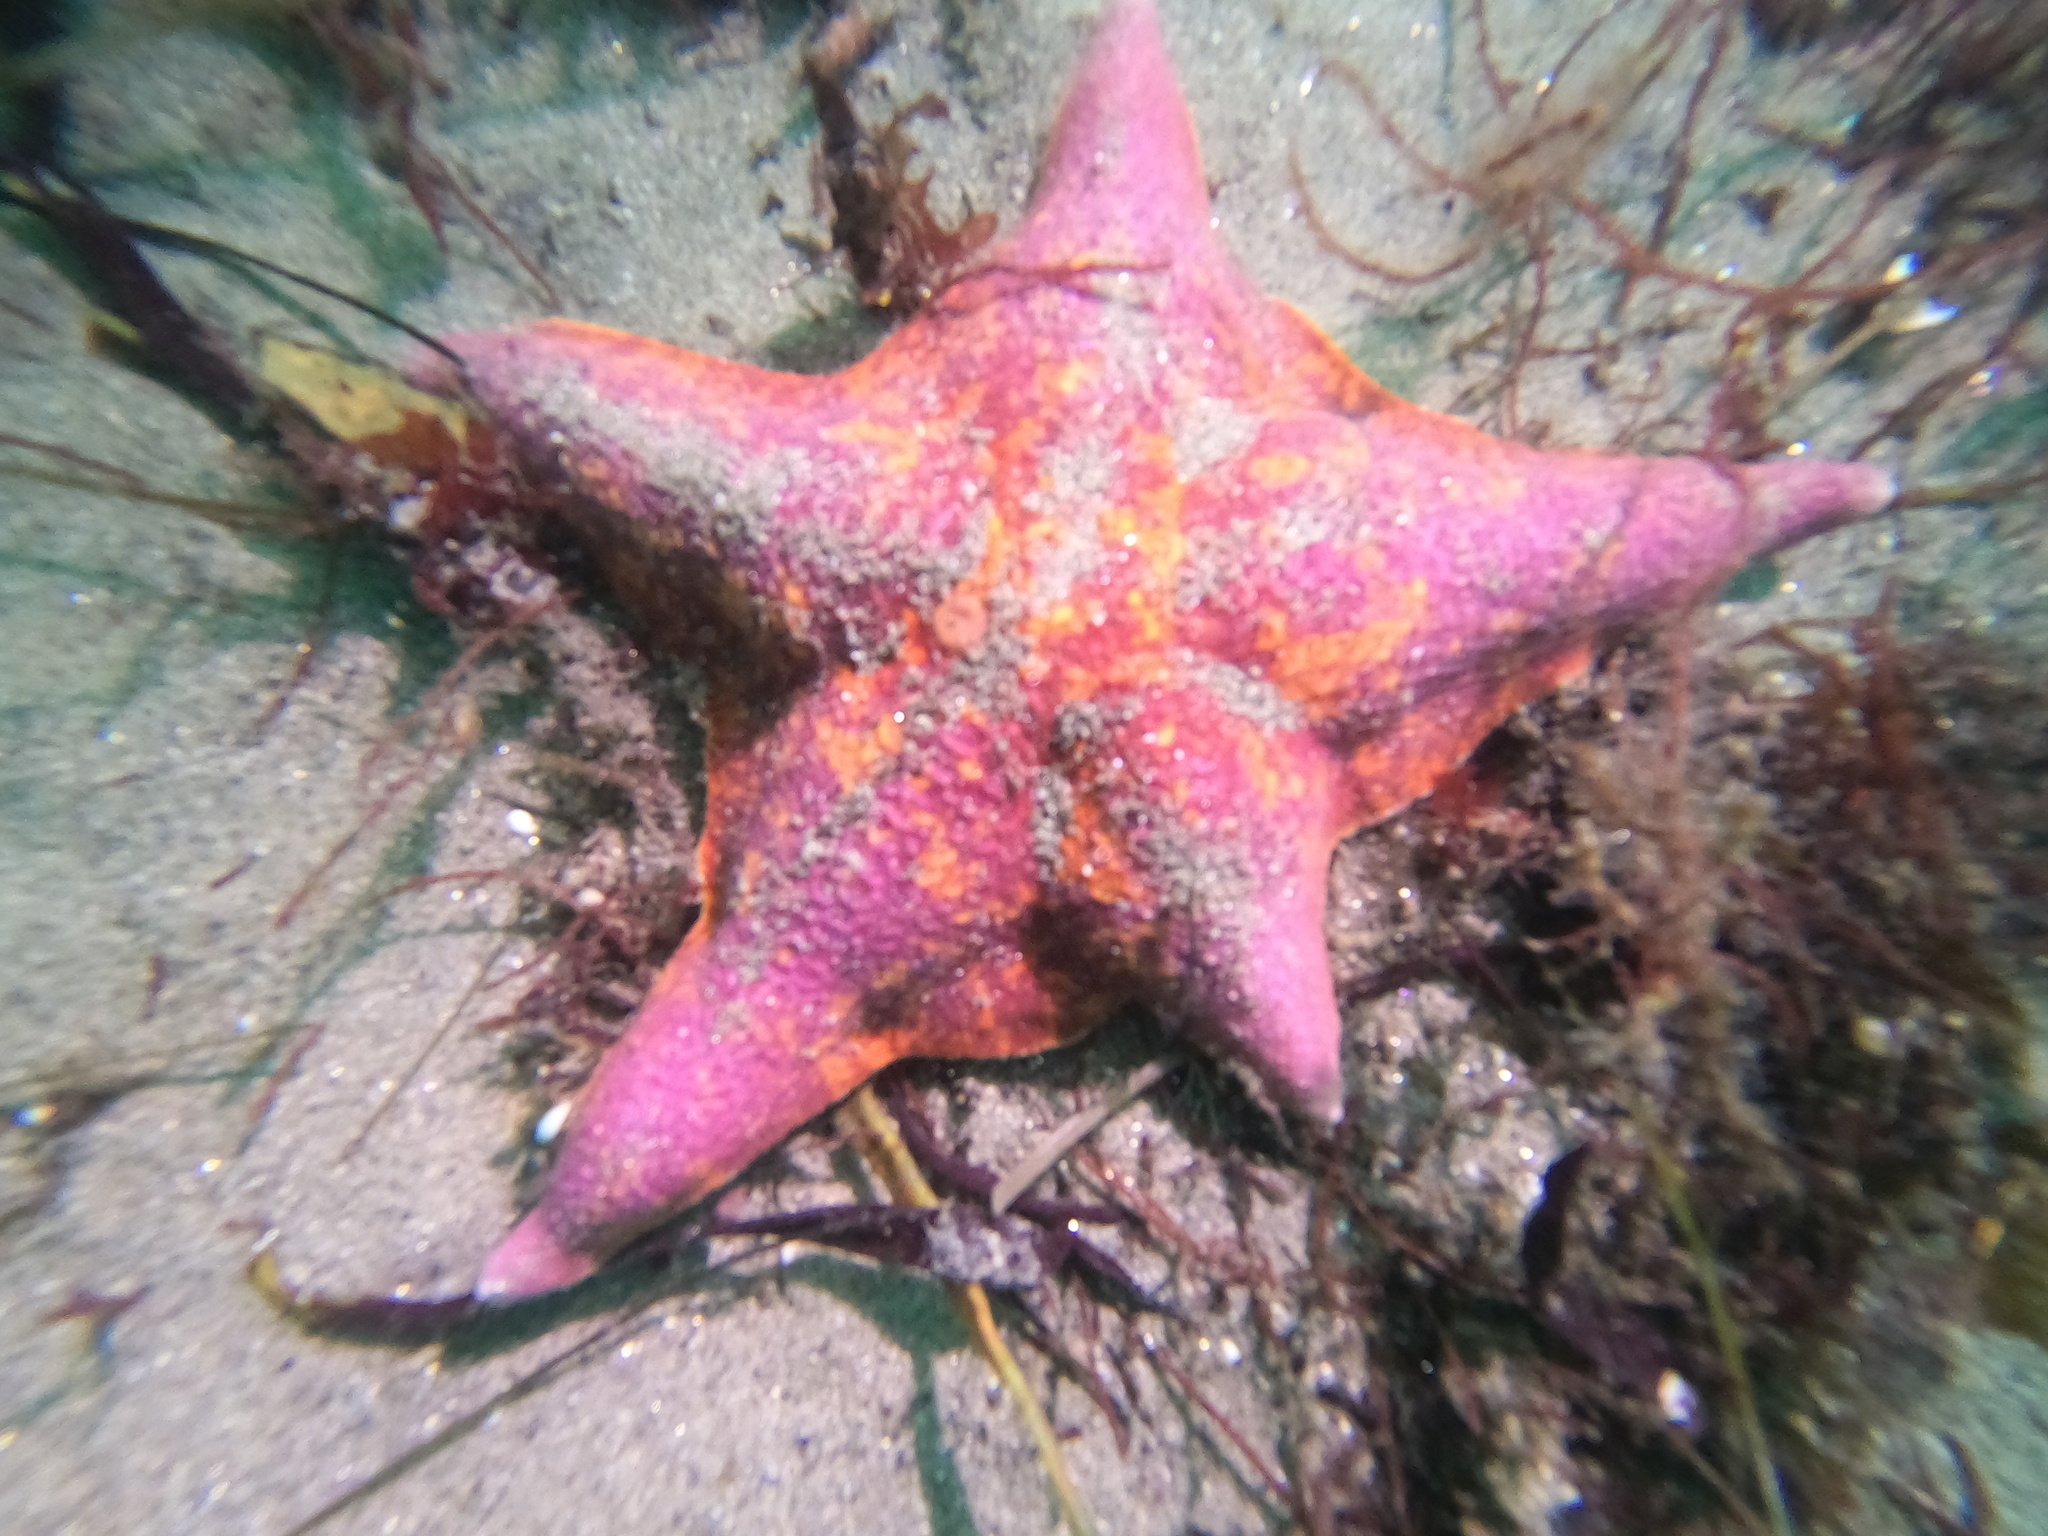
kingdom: Animalia
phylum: Echinodermata
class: Asteroidea
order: Valvatida
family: Asterinidae
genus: Patiria
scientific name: Patiria miniata
